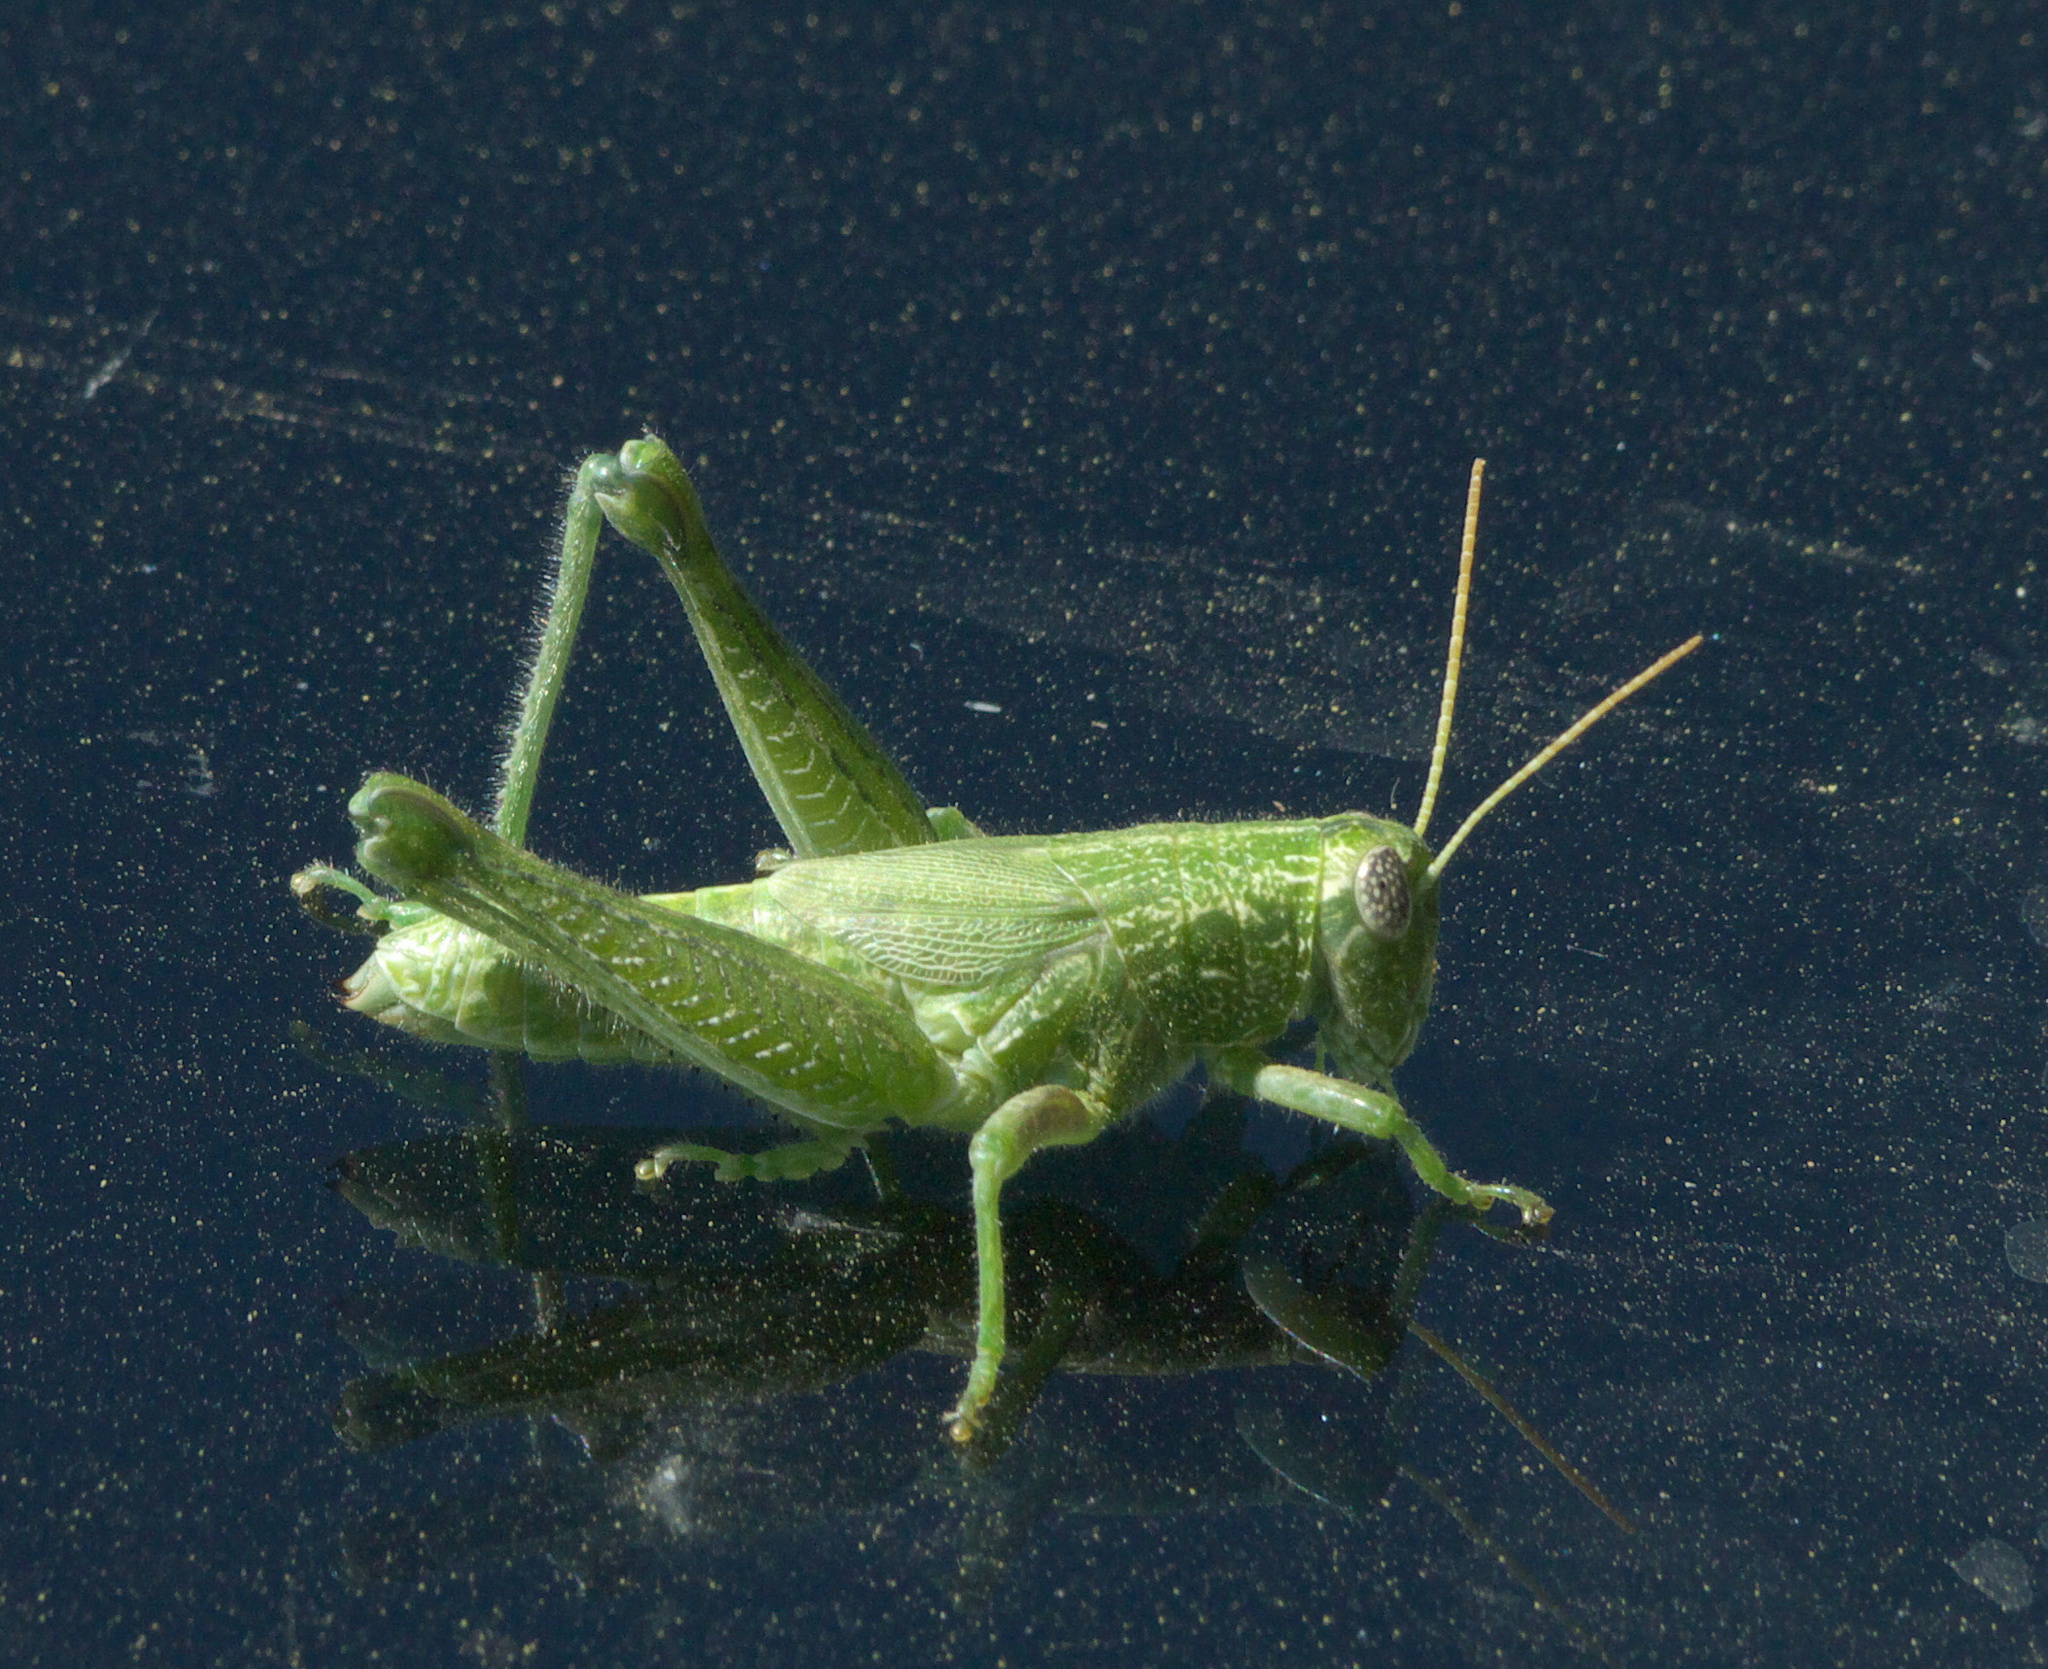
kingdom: Animalia
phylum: Arthropoda
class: Insecta
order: Orthoptera
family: Acrididae
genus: Campylacantha
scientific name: Campylacantha olivacea
